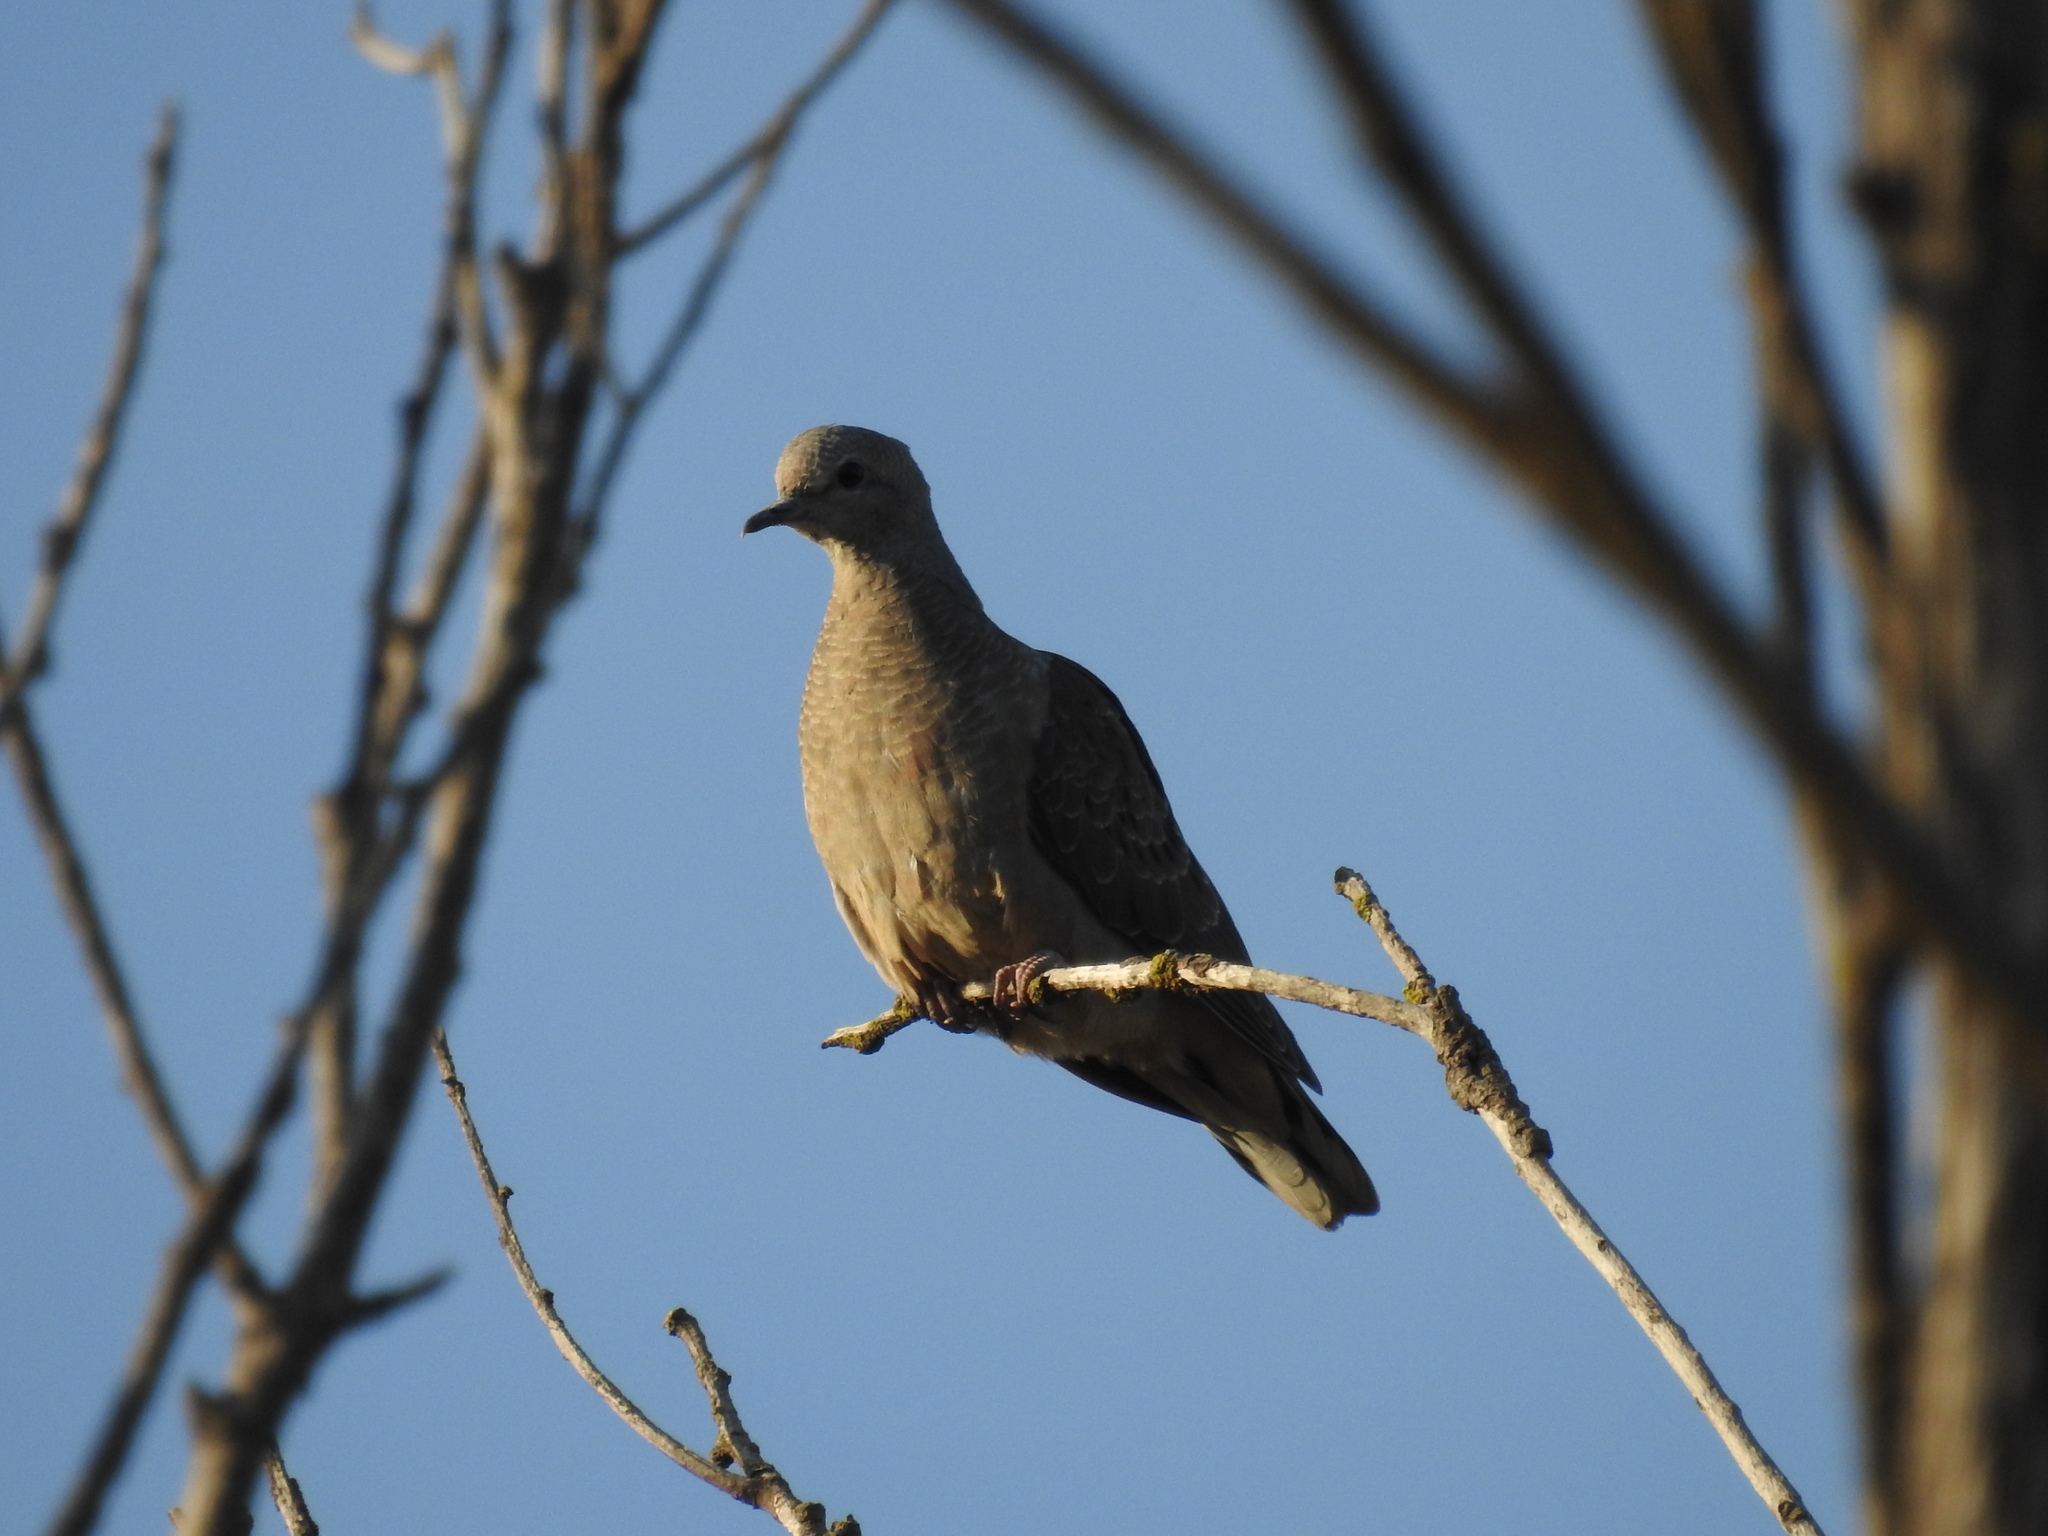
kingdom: Animalia
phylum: Chordata
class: Aves
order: Columbiformes
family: Columbidae
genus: Zenaida
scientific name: Zenaida auriculata
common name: Eared dove
